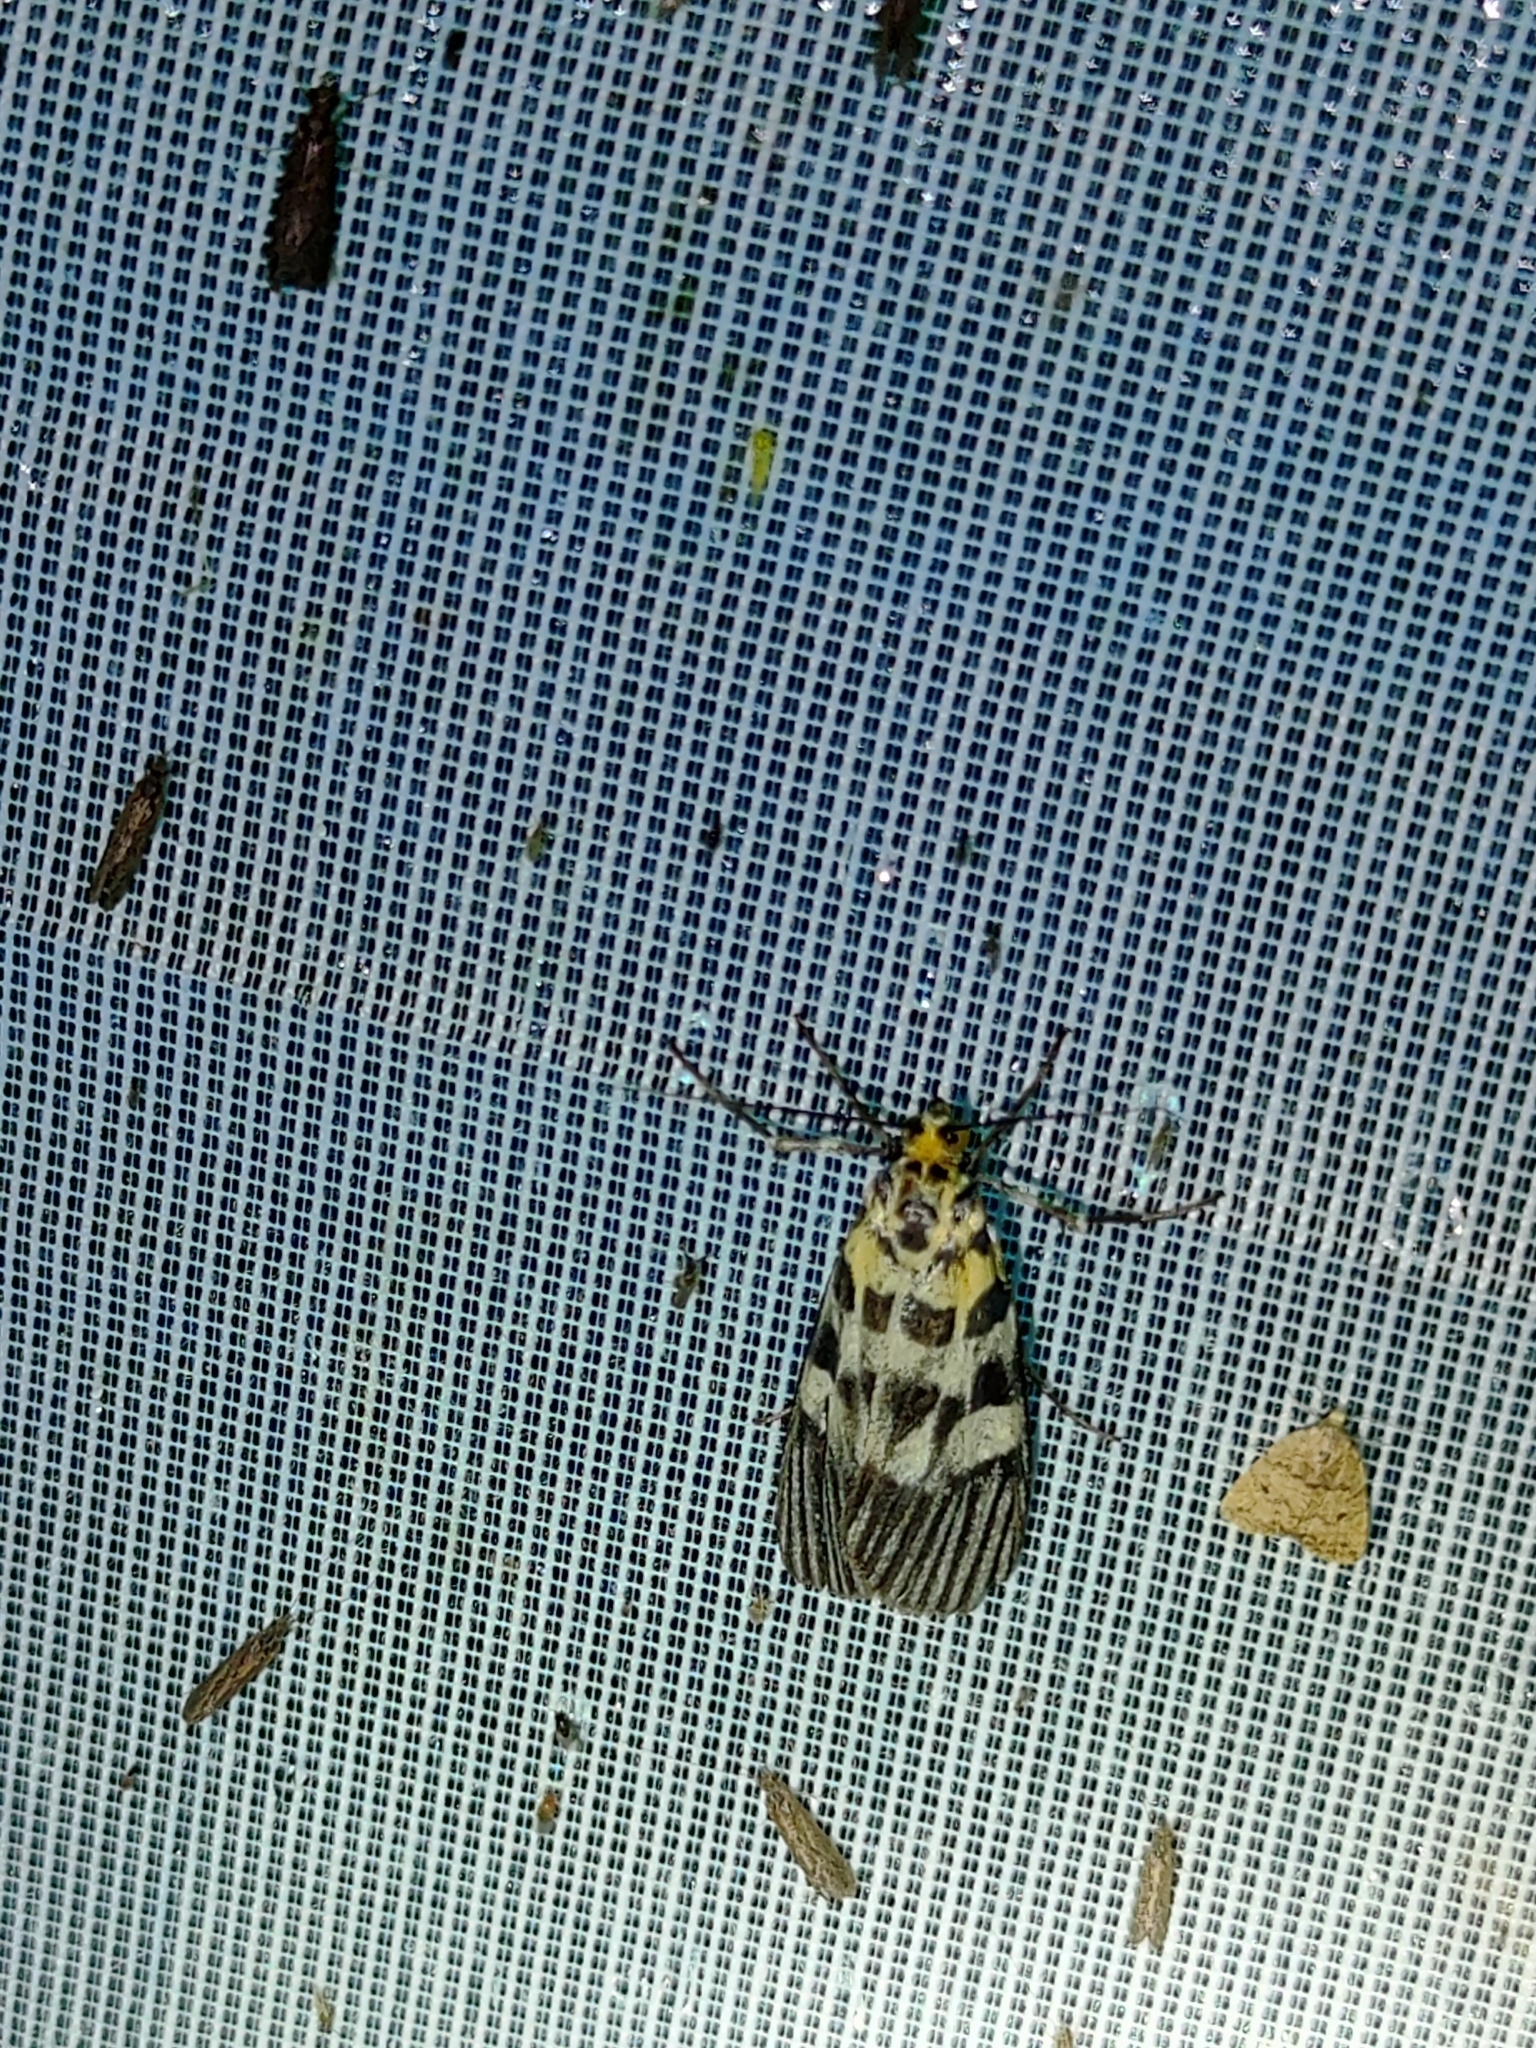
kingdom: Animalia
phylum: Arthropoda
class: Insecta
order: Lepidoptera
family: Pyralidae
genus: Vitessa
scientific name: Vitessa suradeva
